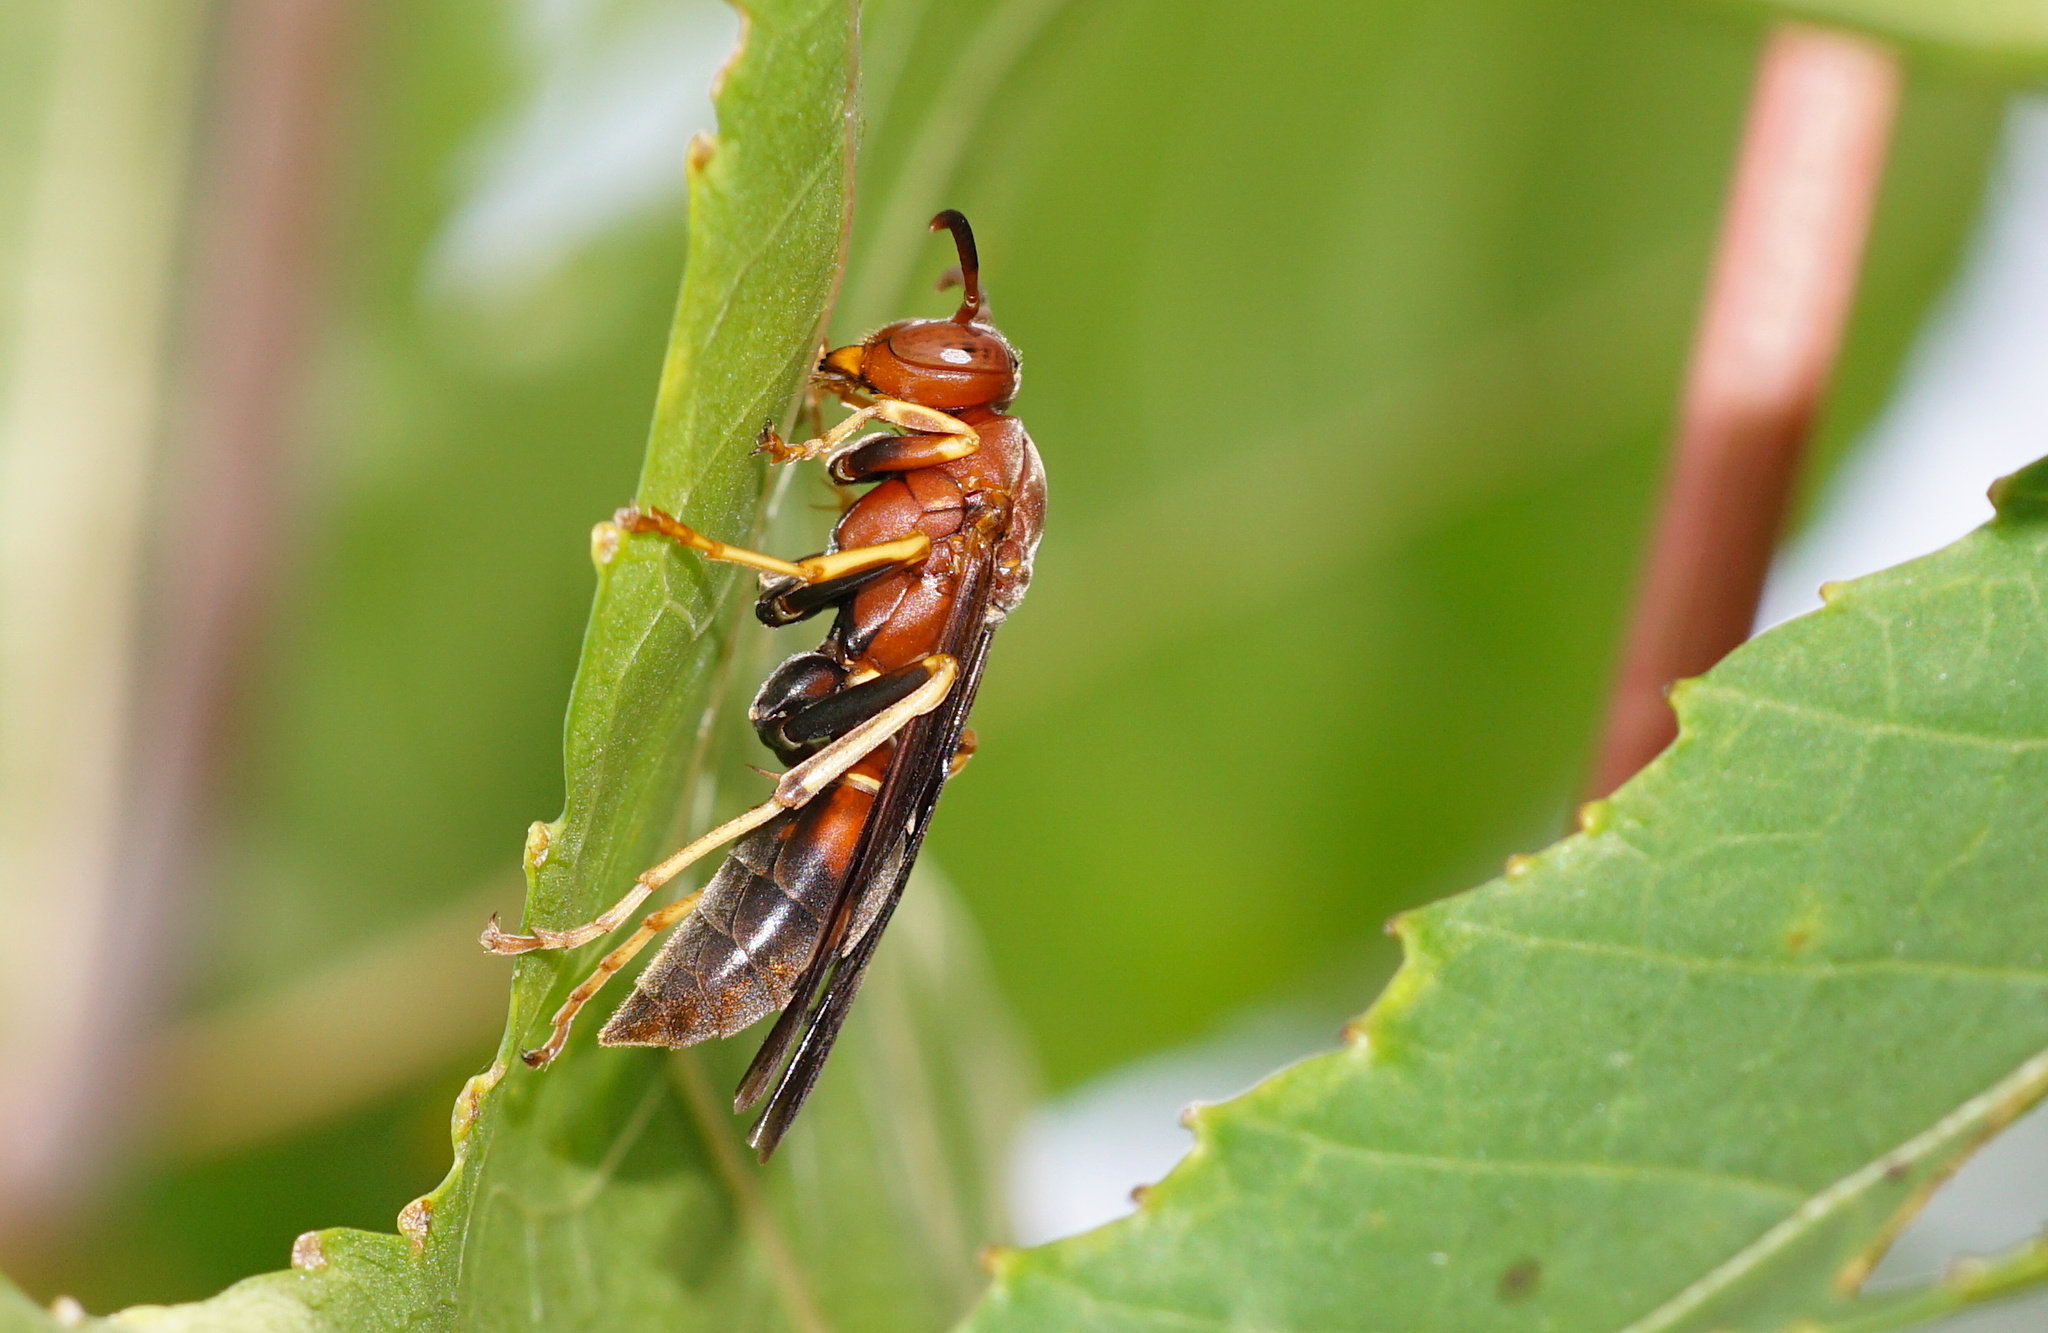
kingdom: Animalia
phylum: Arthropoda
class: Insecta
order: Hymenoptera
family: Eumenidae
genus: Polistes
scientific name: Polistes fuscatus
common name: Dark paper wasp
